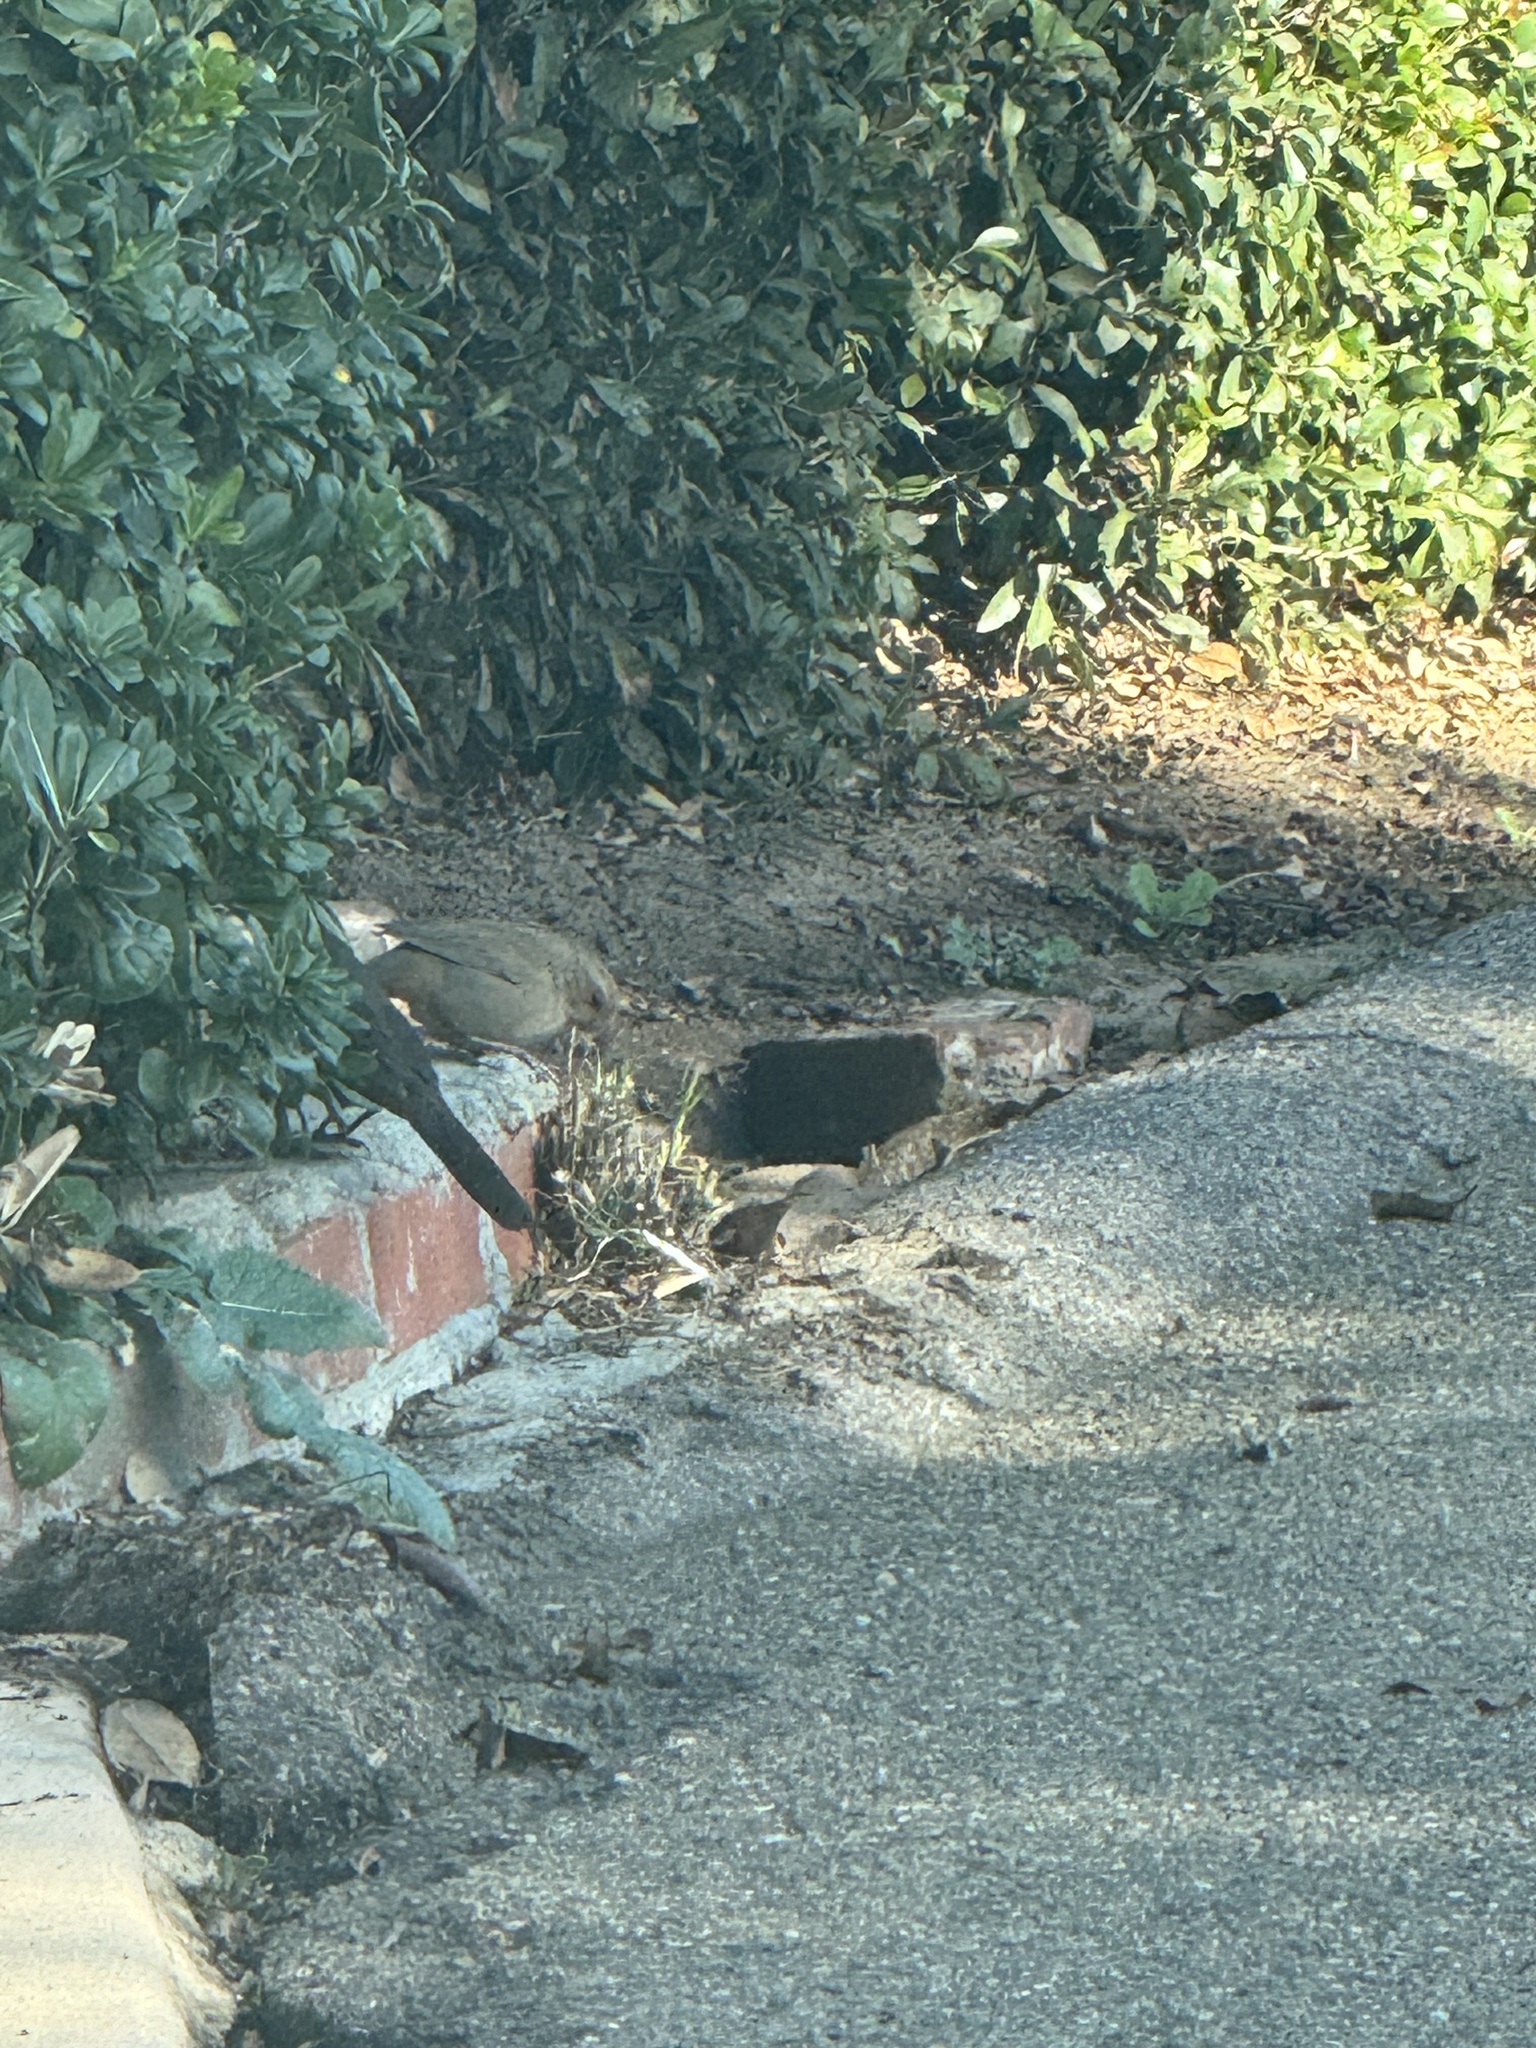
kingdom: Animalia
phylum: Chordata
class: Aves
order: Passeriformes
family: Passerellidae
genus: Melozone
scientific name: Melozone crissalis
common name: California towhee
